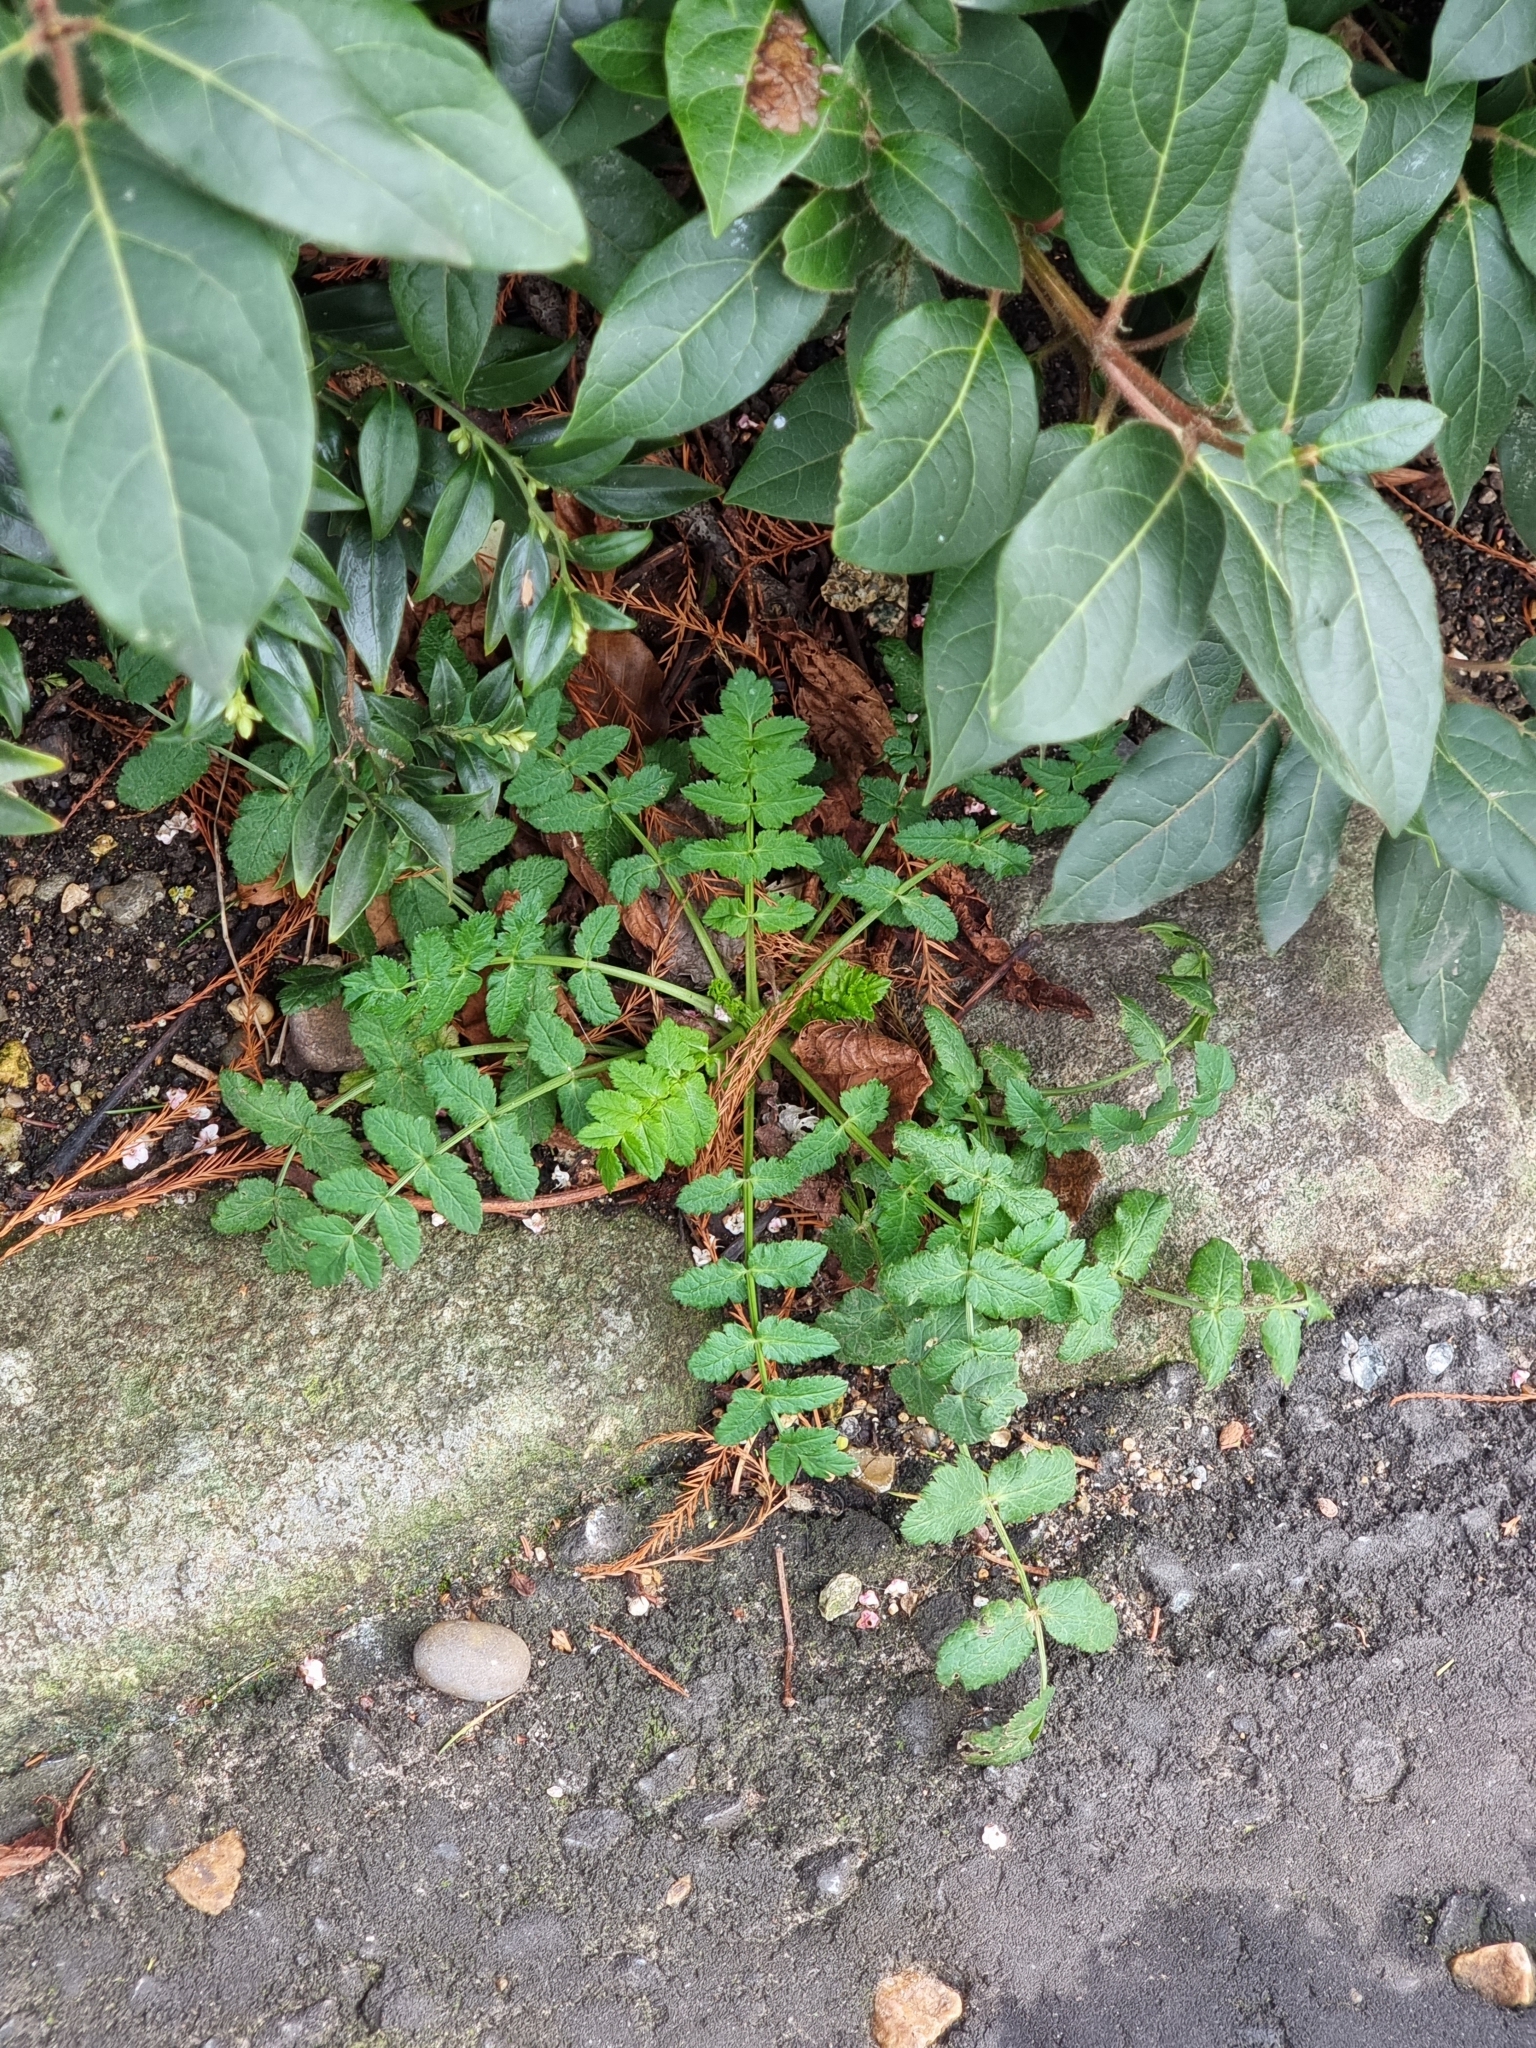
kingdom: Plantae
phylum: Tracheophyta
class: Magnoliopsida
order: Geraniales
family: Geraniaceae
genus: Erodium
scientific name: Erodium moschatum
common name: Musk stork's-bill
